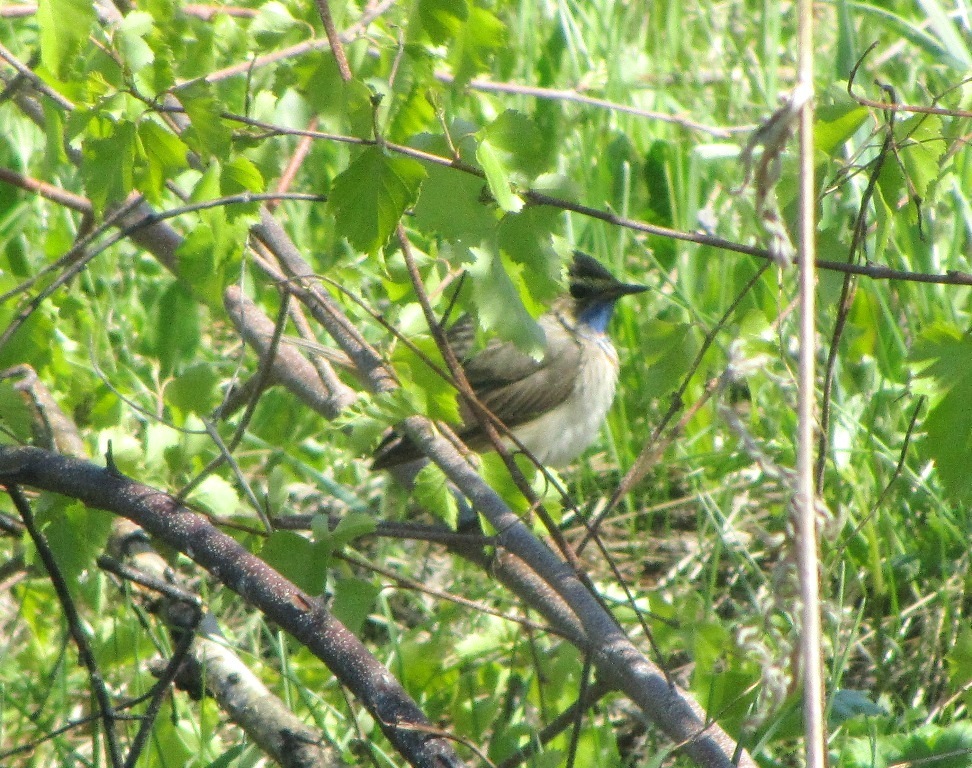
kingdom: Animalia
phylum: Chordata
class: Aves
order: Passeriformes
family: Muscicapidae
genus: Luscinia
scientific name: Luscinia svecica
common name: Bluethroat
